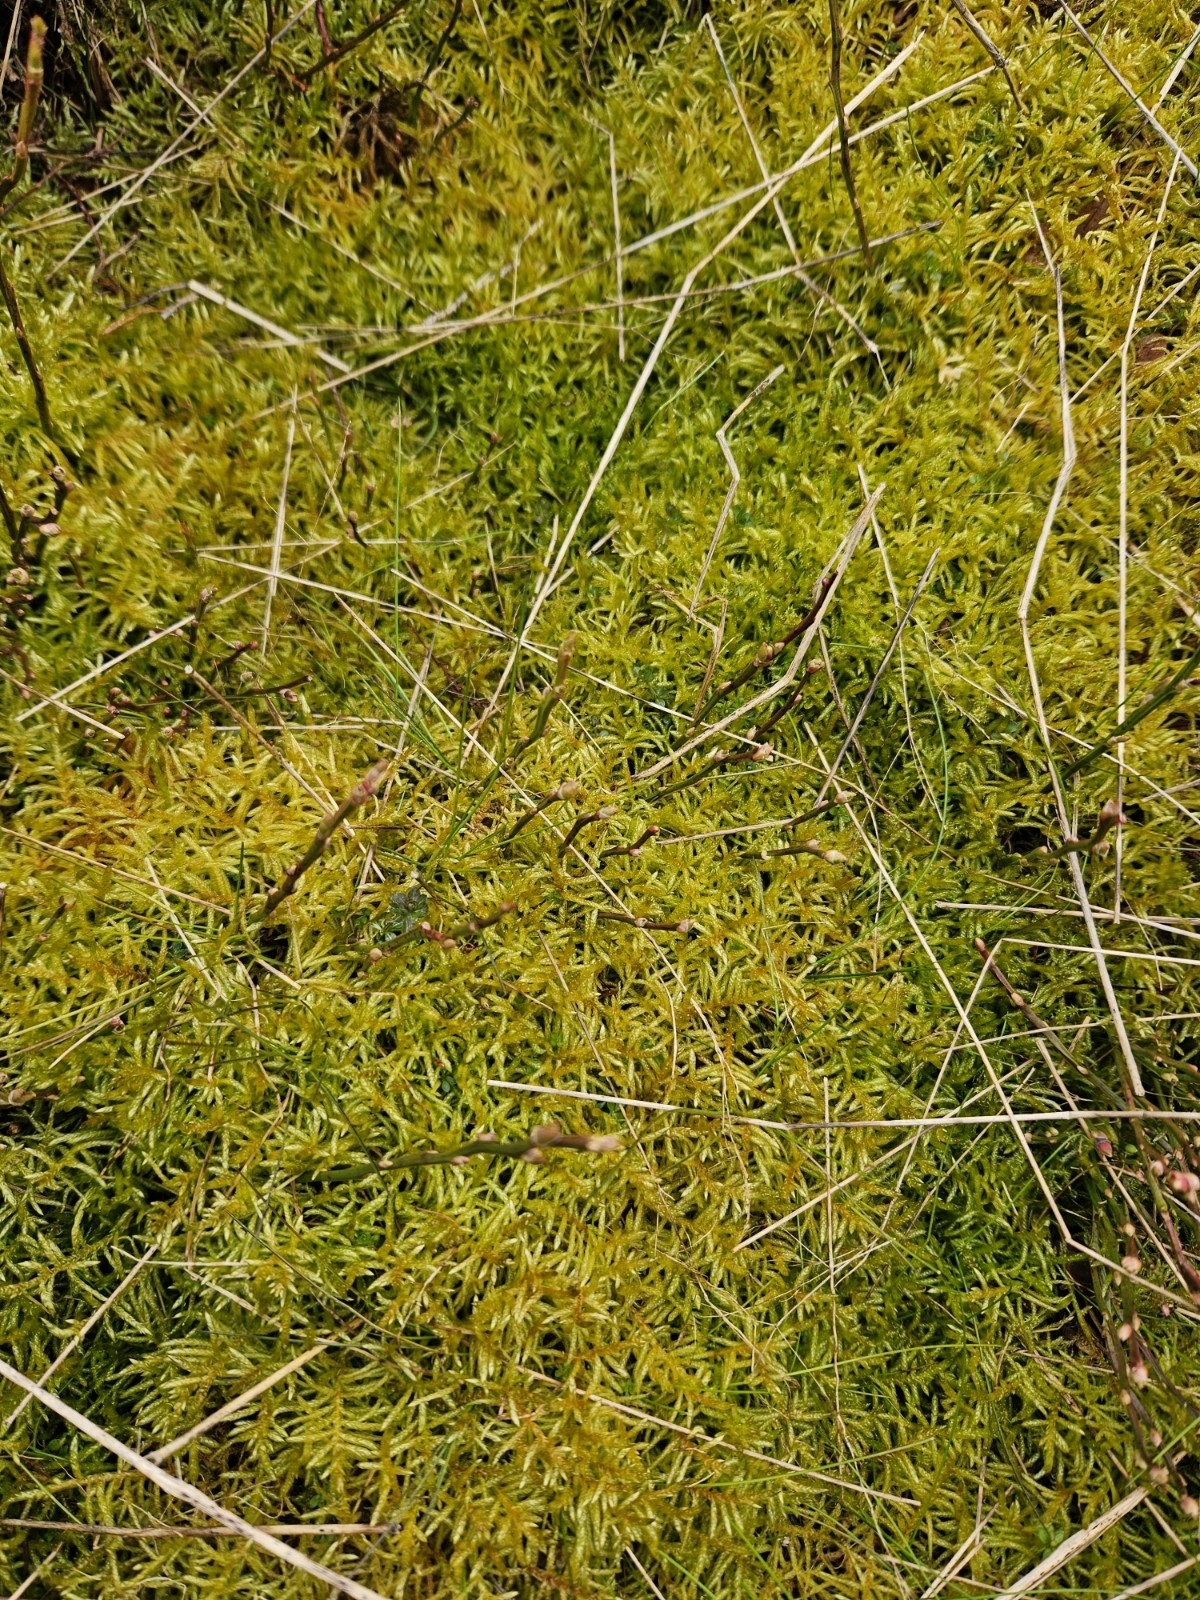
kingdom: Plantae
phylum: Bryophyta
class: Bryopsida
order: Hypnales
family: Brachytheciaceae
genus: Pseudoscleropodium
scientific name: Pseudoscleropodium purum
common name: Neat feather-moss
